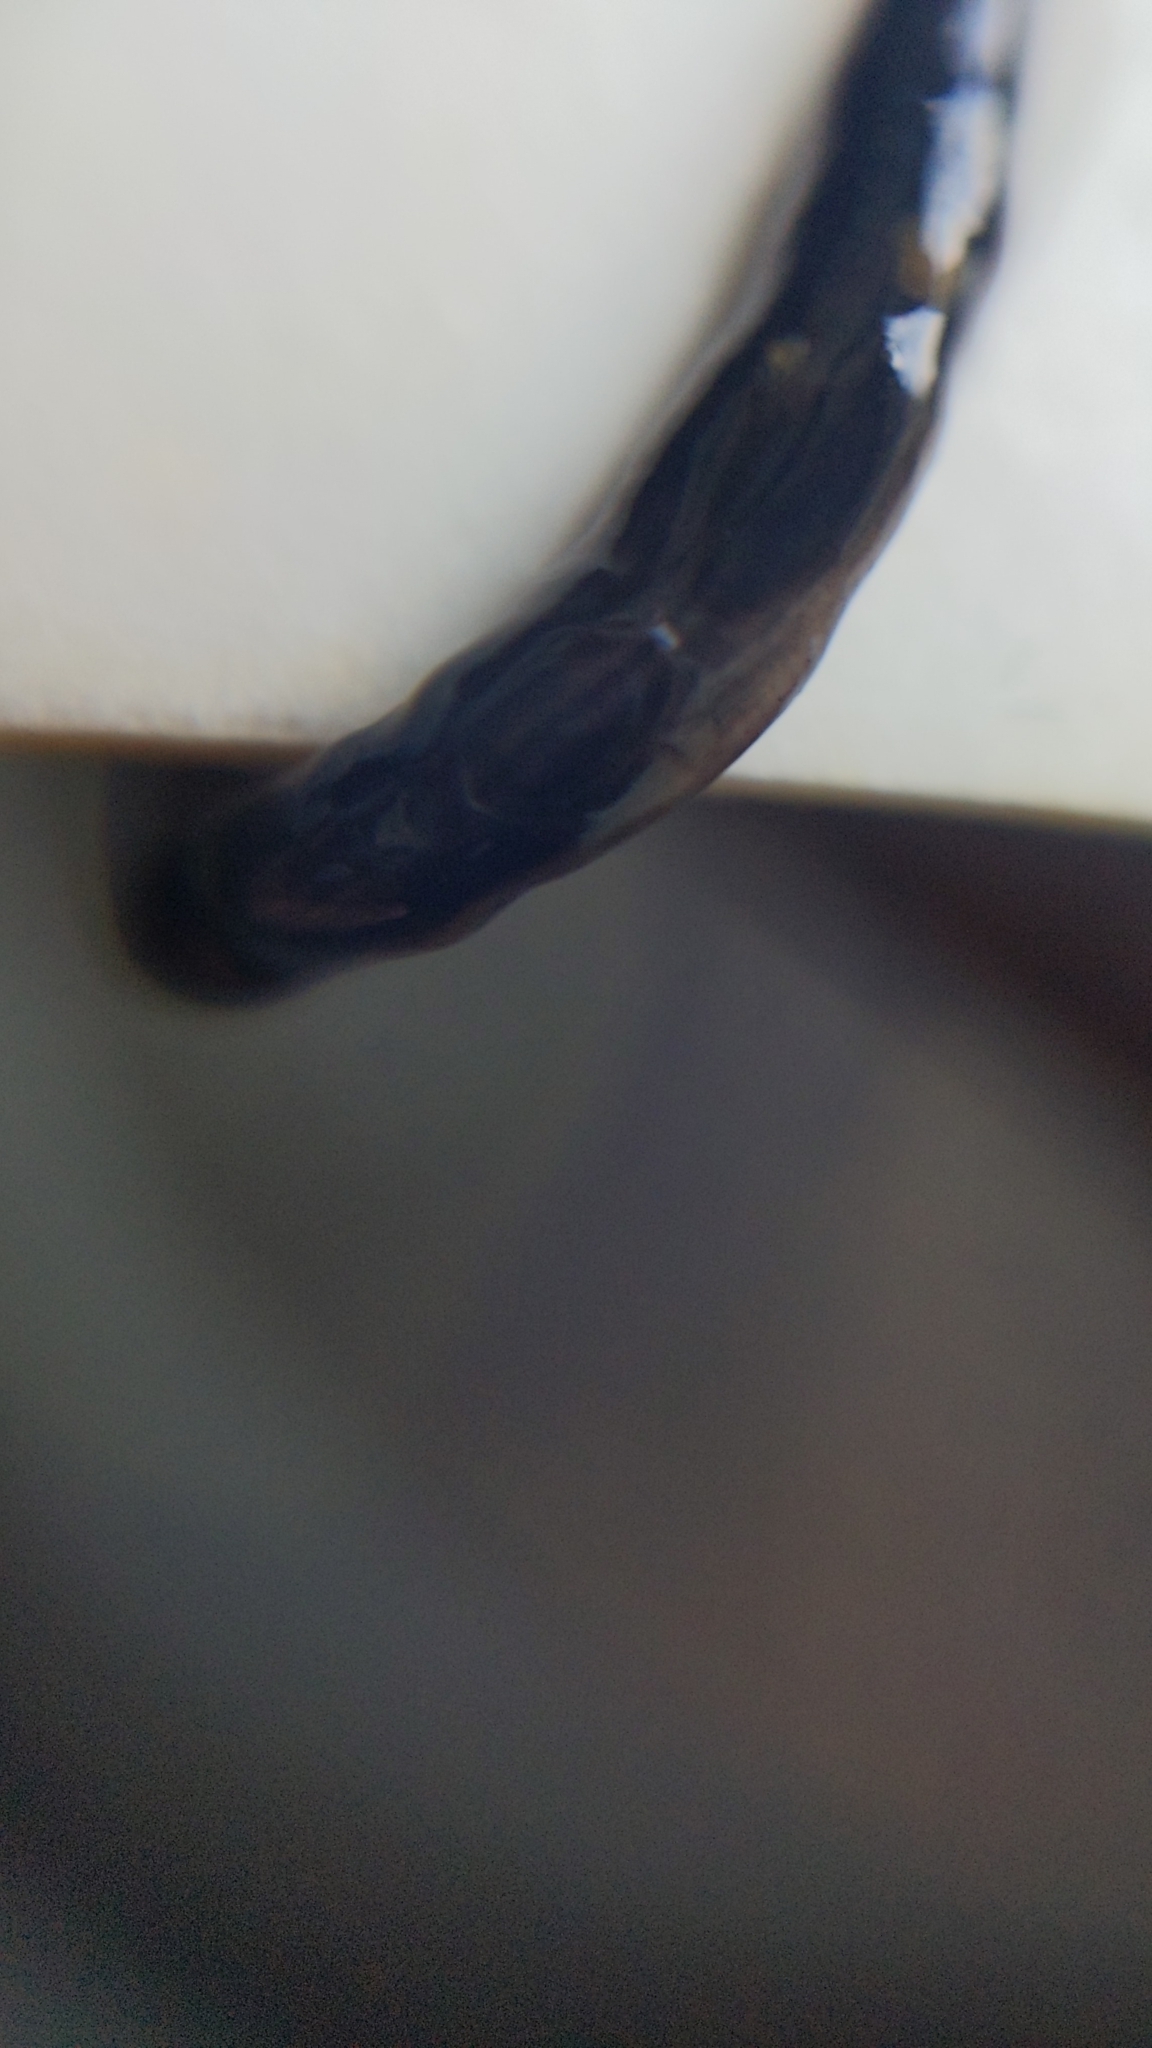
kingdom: Animalia
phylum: Platyhelminthes
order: Tricladida
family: Geoplanidae
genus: Parakontikia
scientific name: Parakontikia ventrolineata
